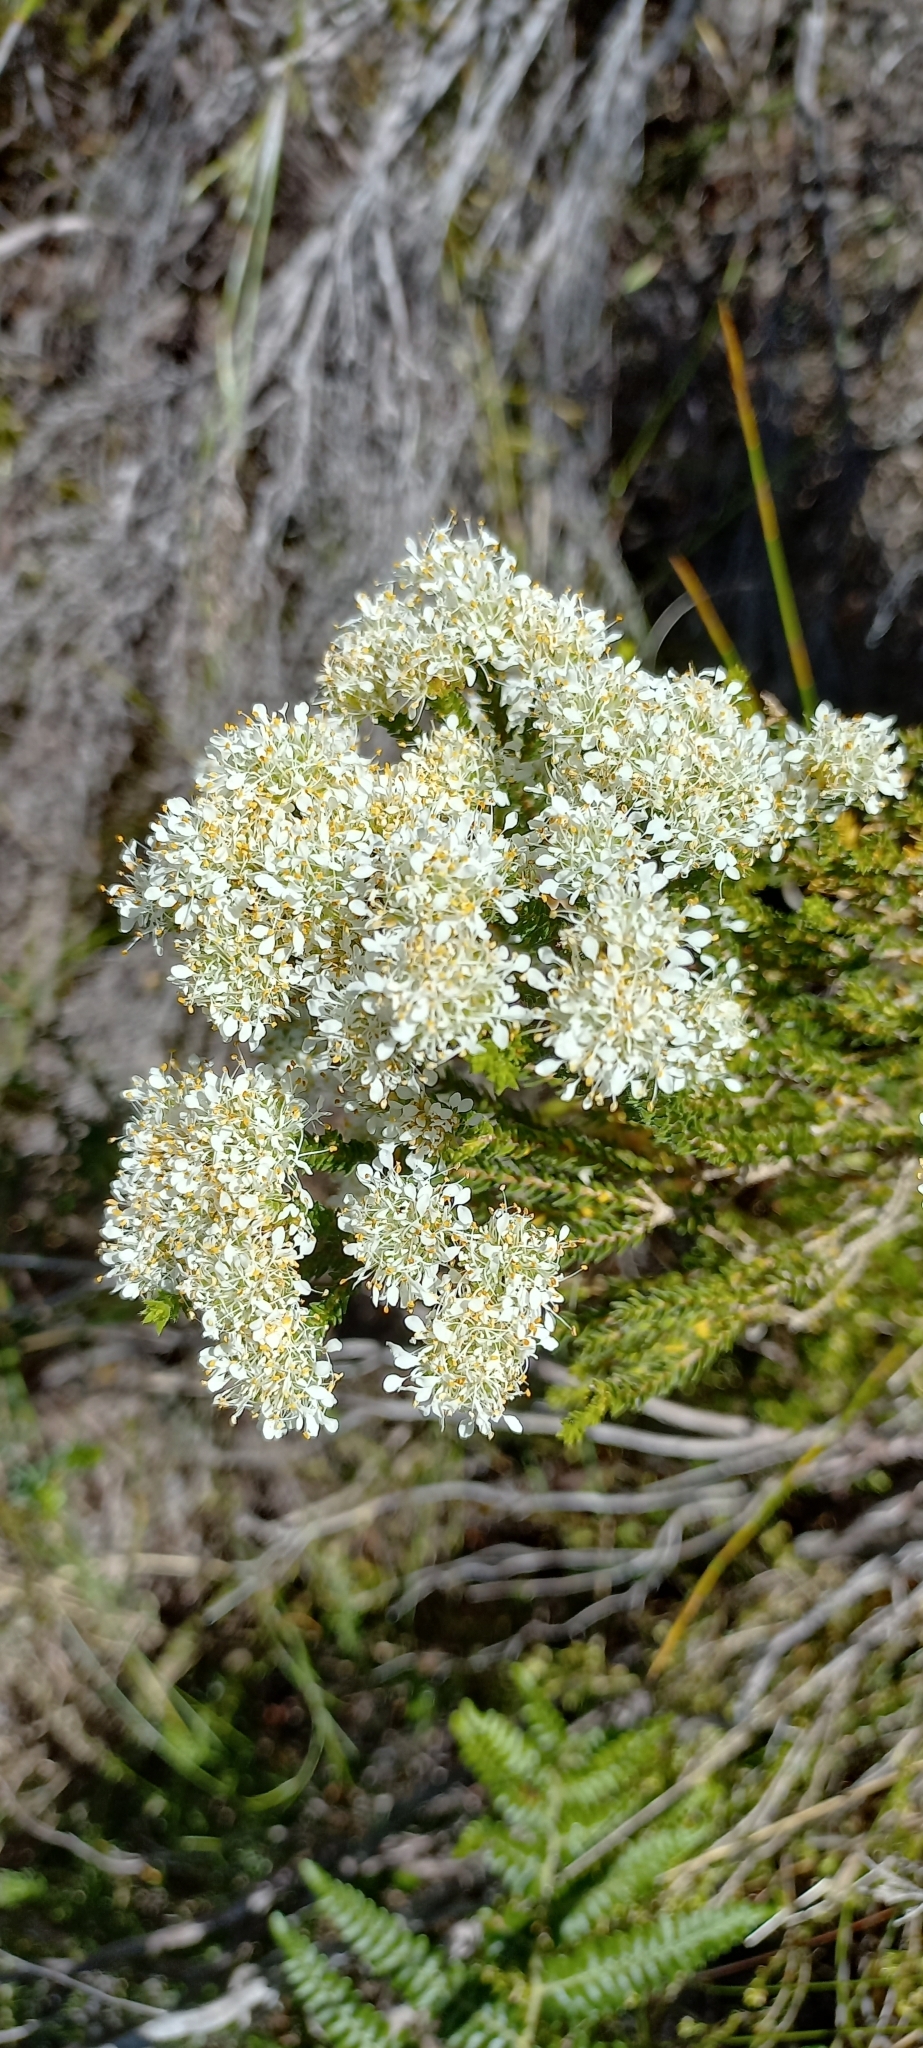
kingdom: Plantae
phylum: Tracheophyta
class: Magnoliopsida
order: Sapindales
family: Rutaceae
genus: Agathosma
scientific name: Agathosma imbricata
